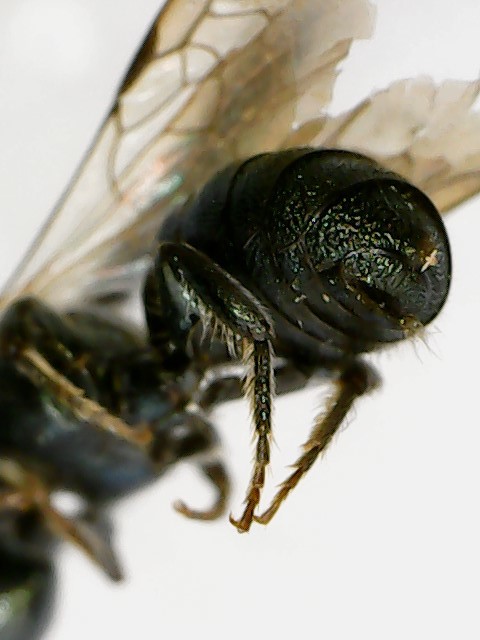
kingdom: Animalia
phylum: Arthropoda
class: Insecta
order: Hymenoptera
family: Apidae
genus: Ceratina
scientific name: Ceratina calcarata
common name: Spurred carpenter bee
